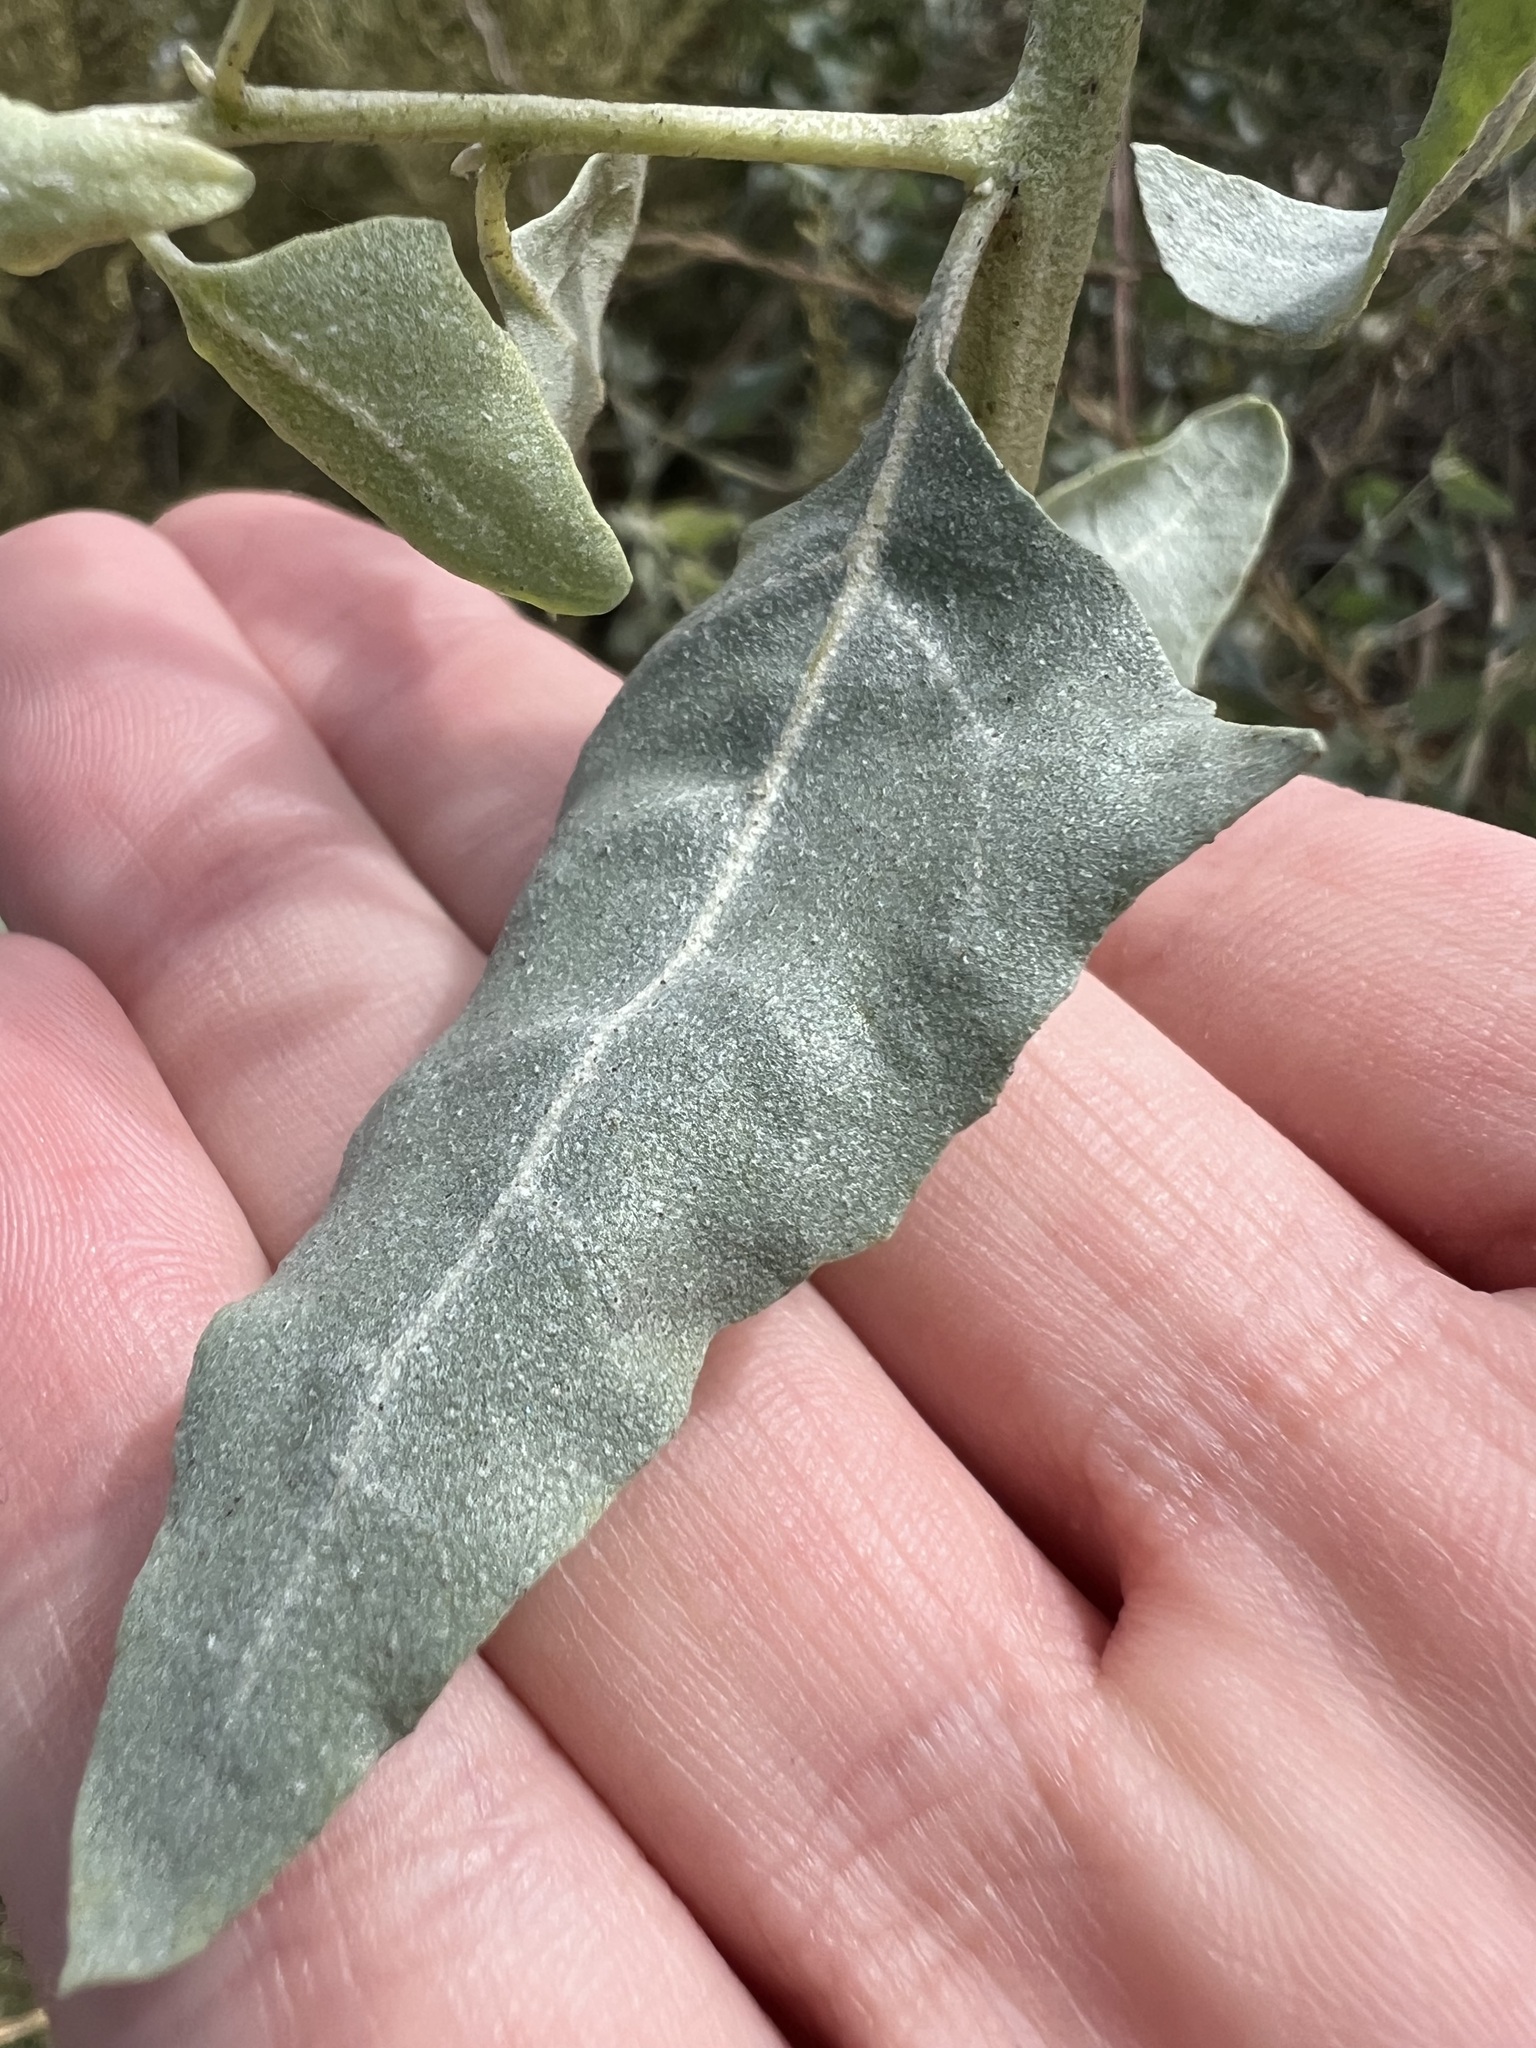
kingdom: Plantae
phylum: Tracheophyta
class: Magnoliopsida
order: Caryophyllales
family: Amaranthaceae
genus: Atriplex
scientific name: Atriplex lentiformis
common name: Big saltbush
